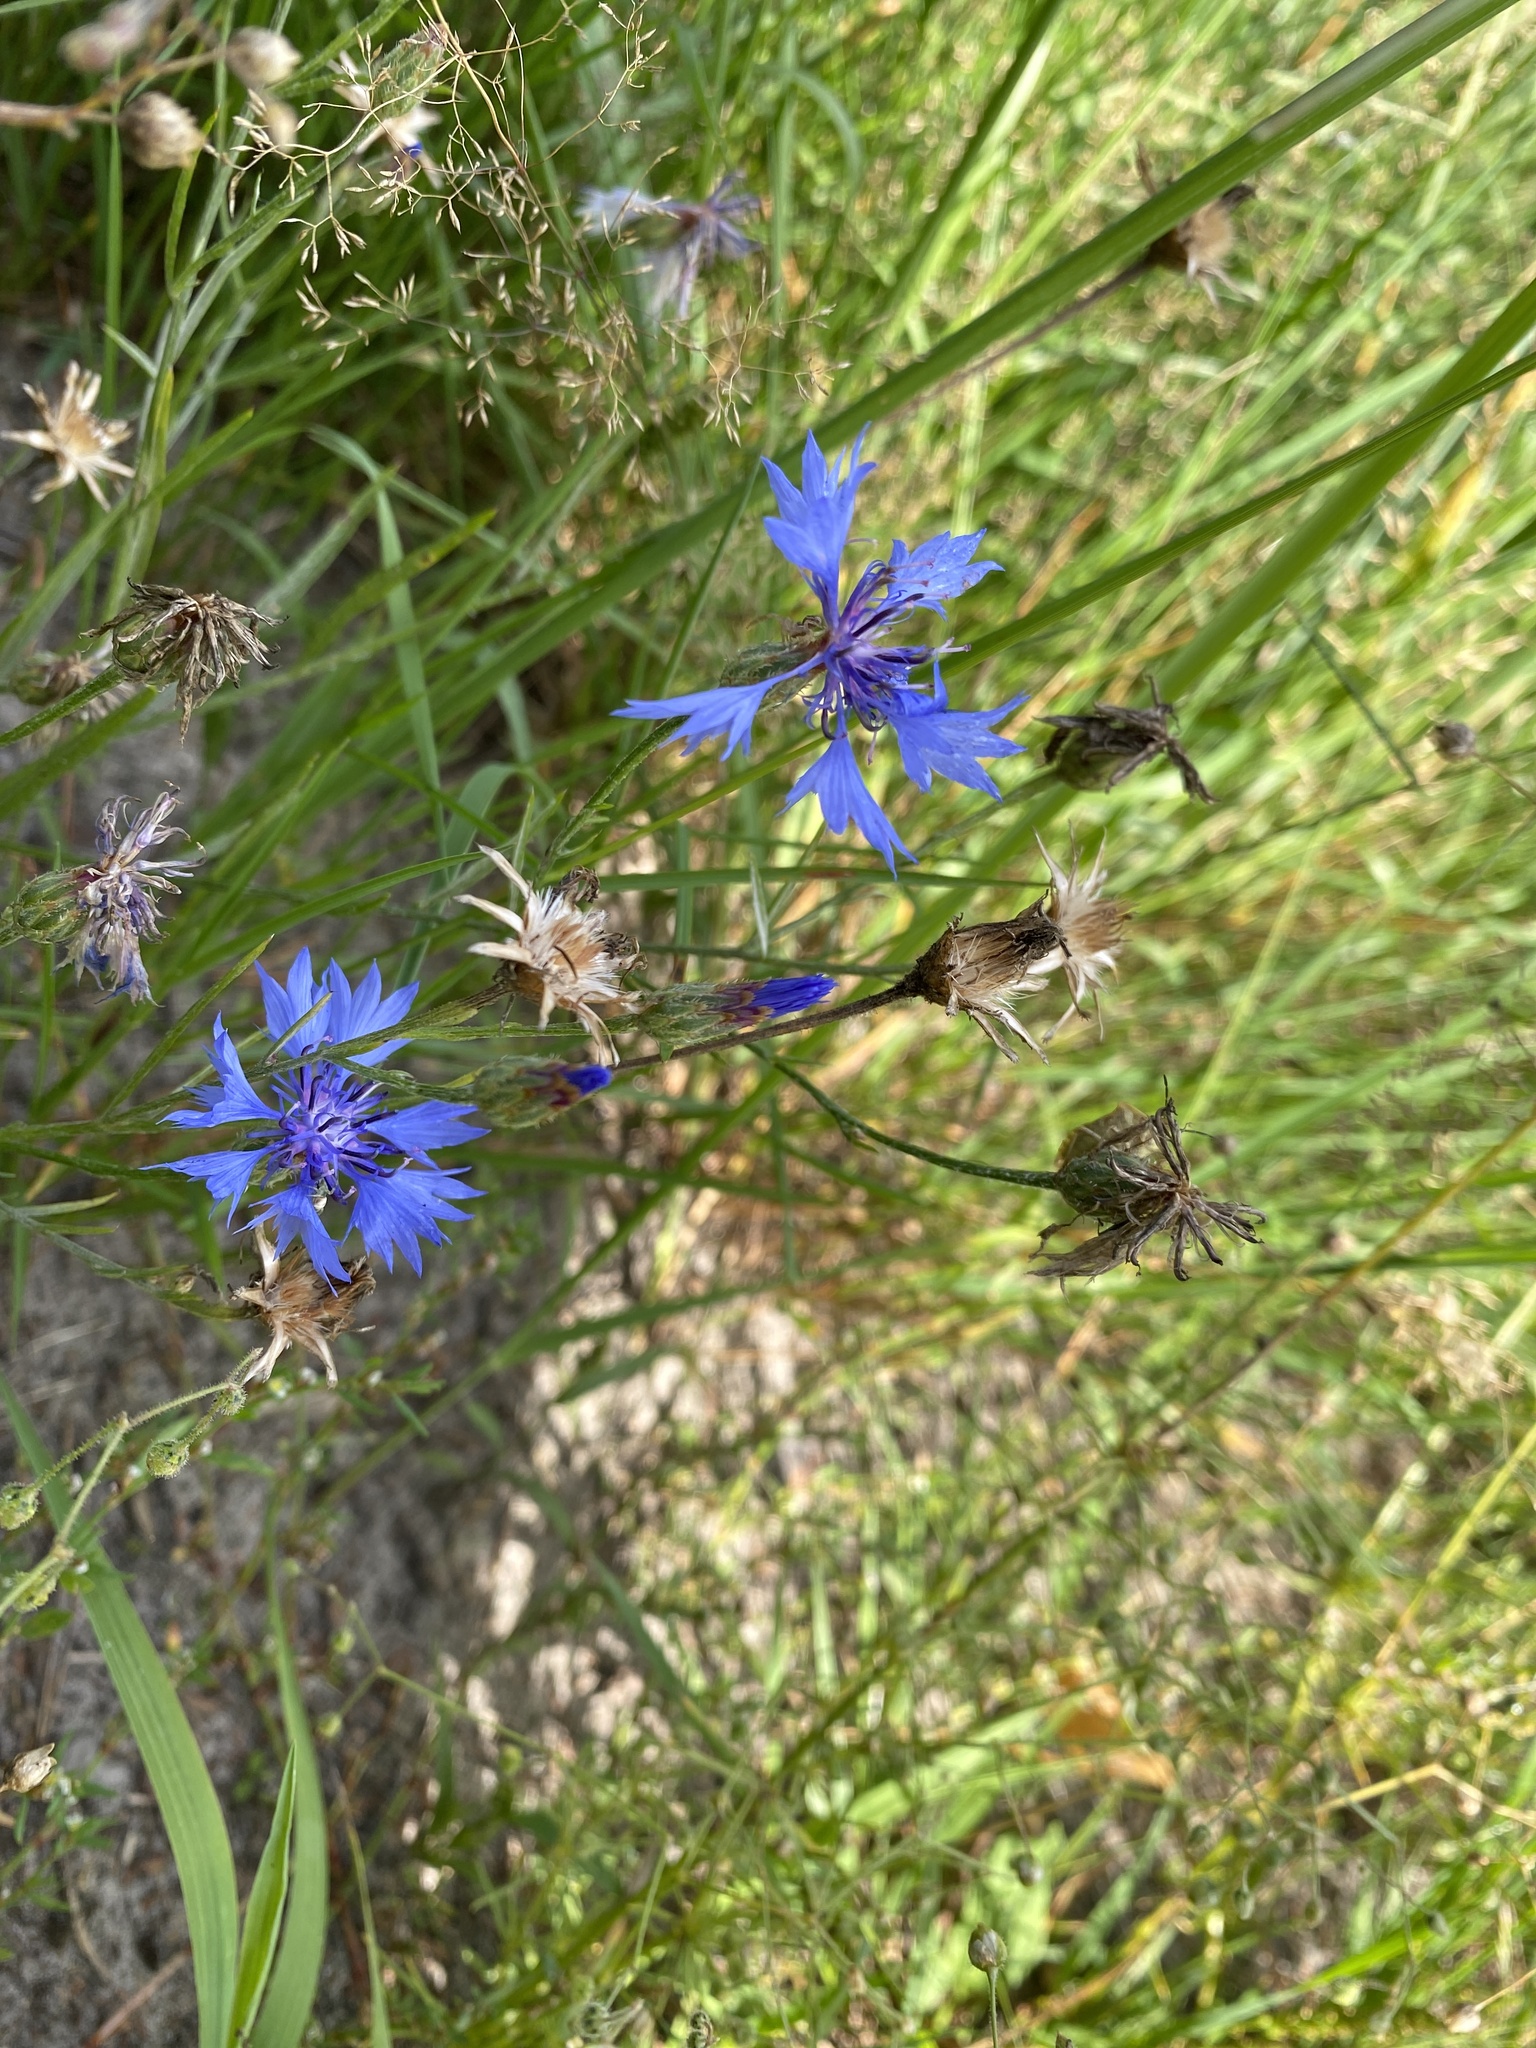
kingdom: Plantae
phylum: Tracheophyta
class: Magnoliopsida
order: Asterales
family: Asteraceae
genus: Centaurea
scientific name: Centaurea cyanus
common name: Cornflower
